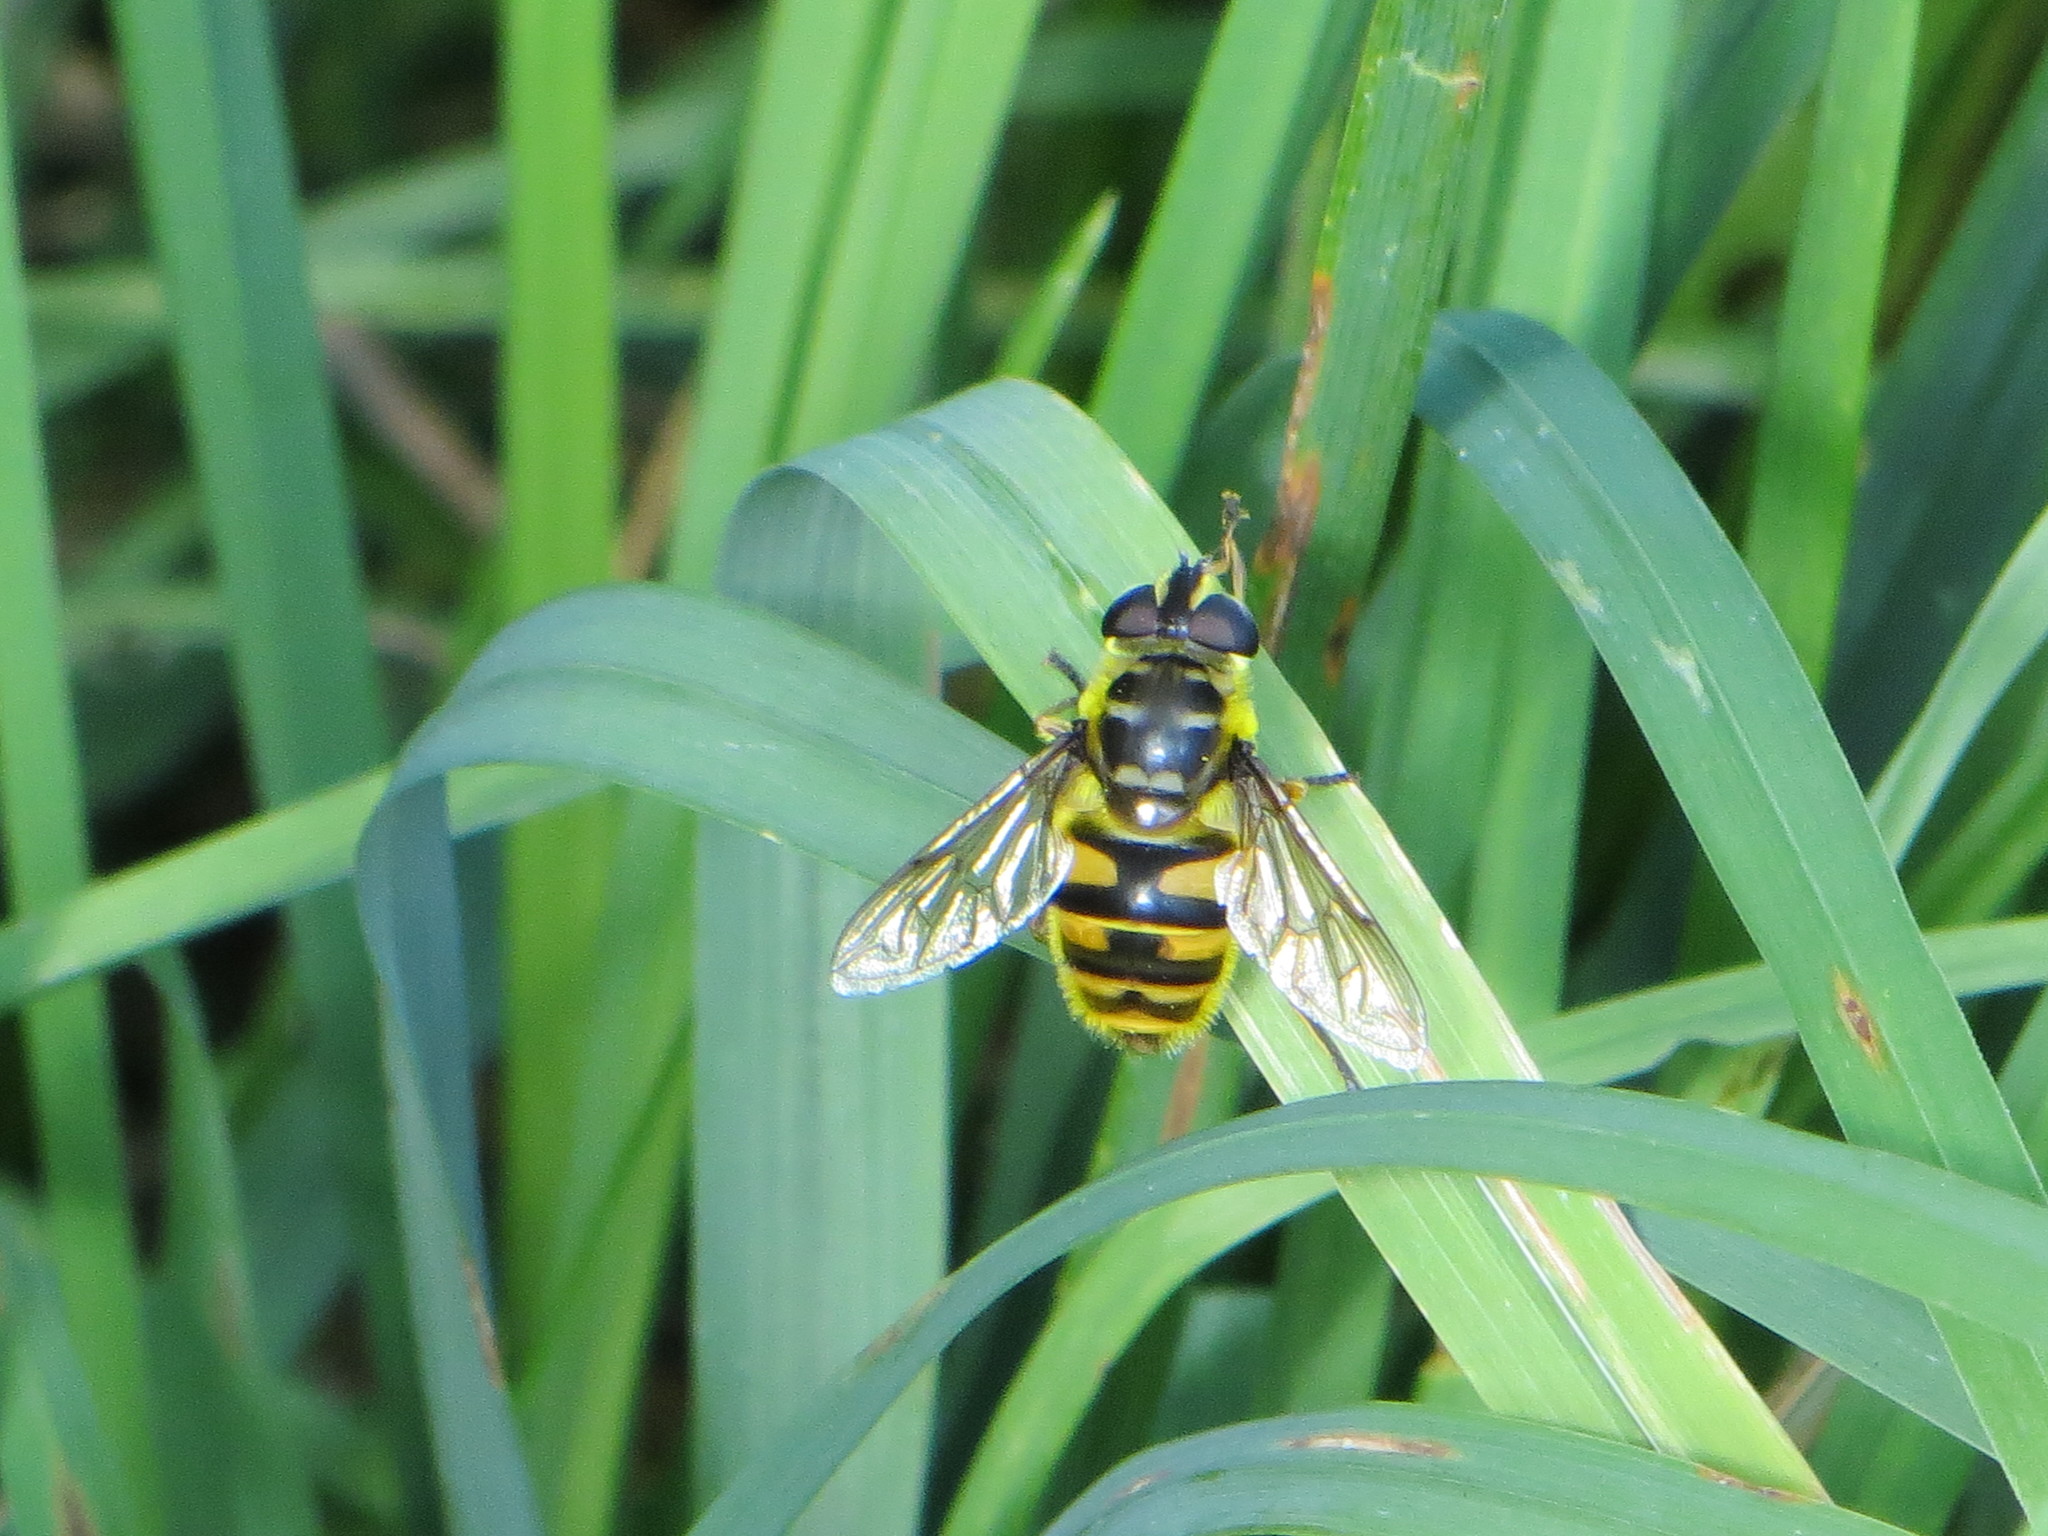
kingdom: Animalia
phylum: Arthropoda
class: Insecta
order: Diptera
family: Syrphidae
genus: Myathropa
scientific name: Myathropa florea
